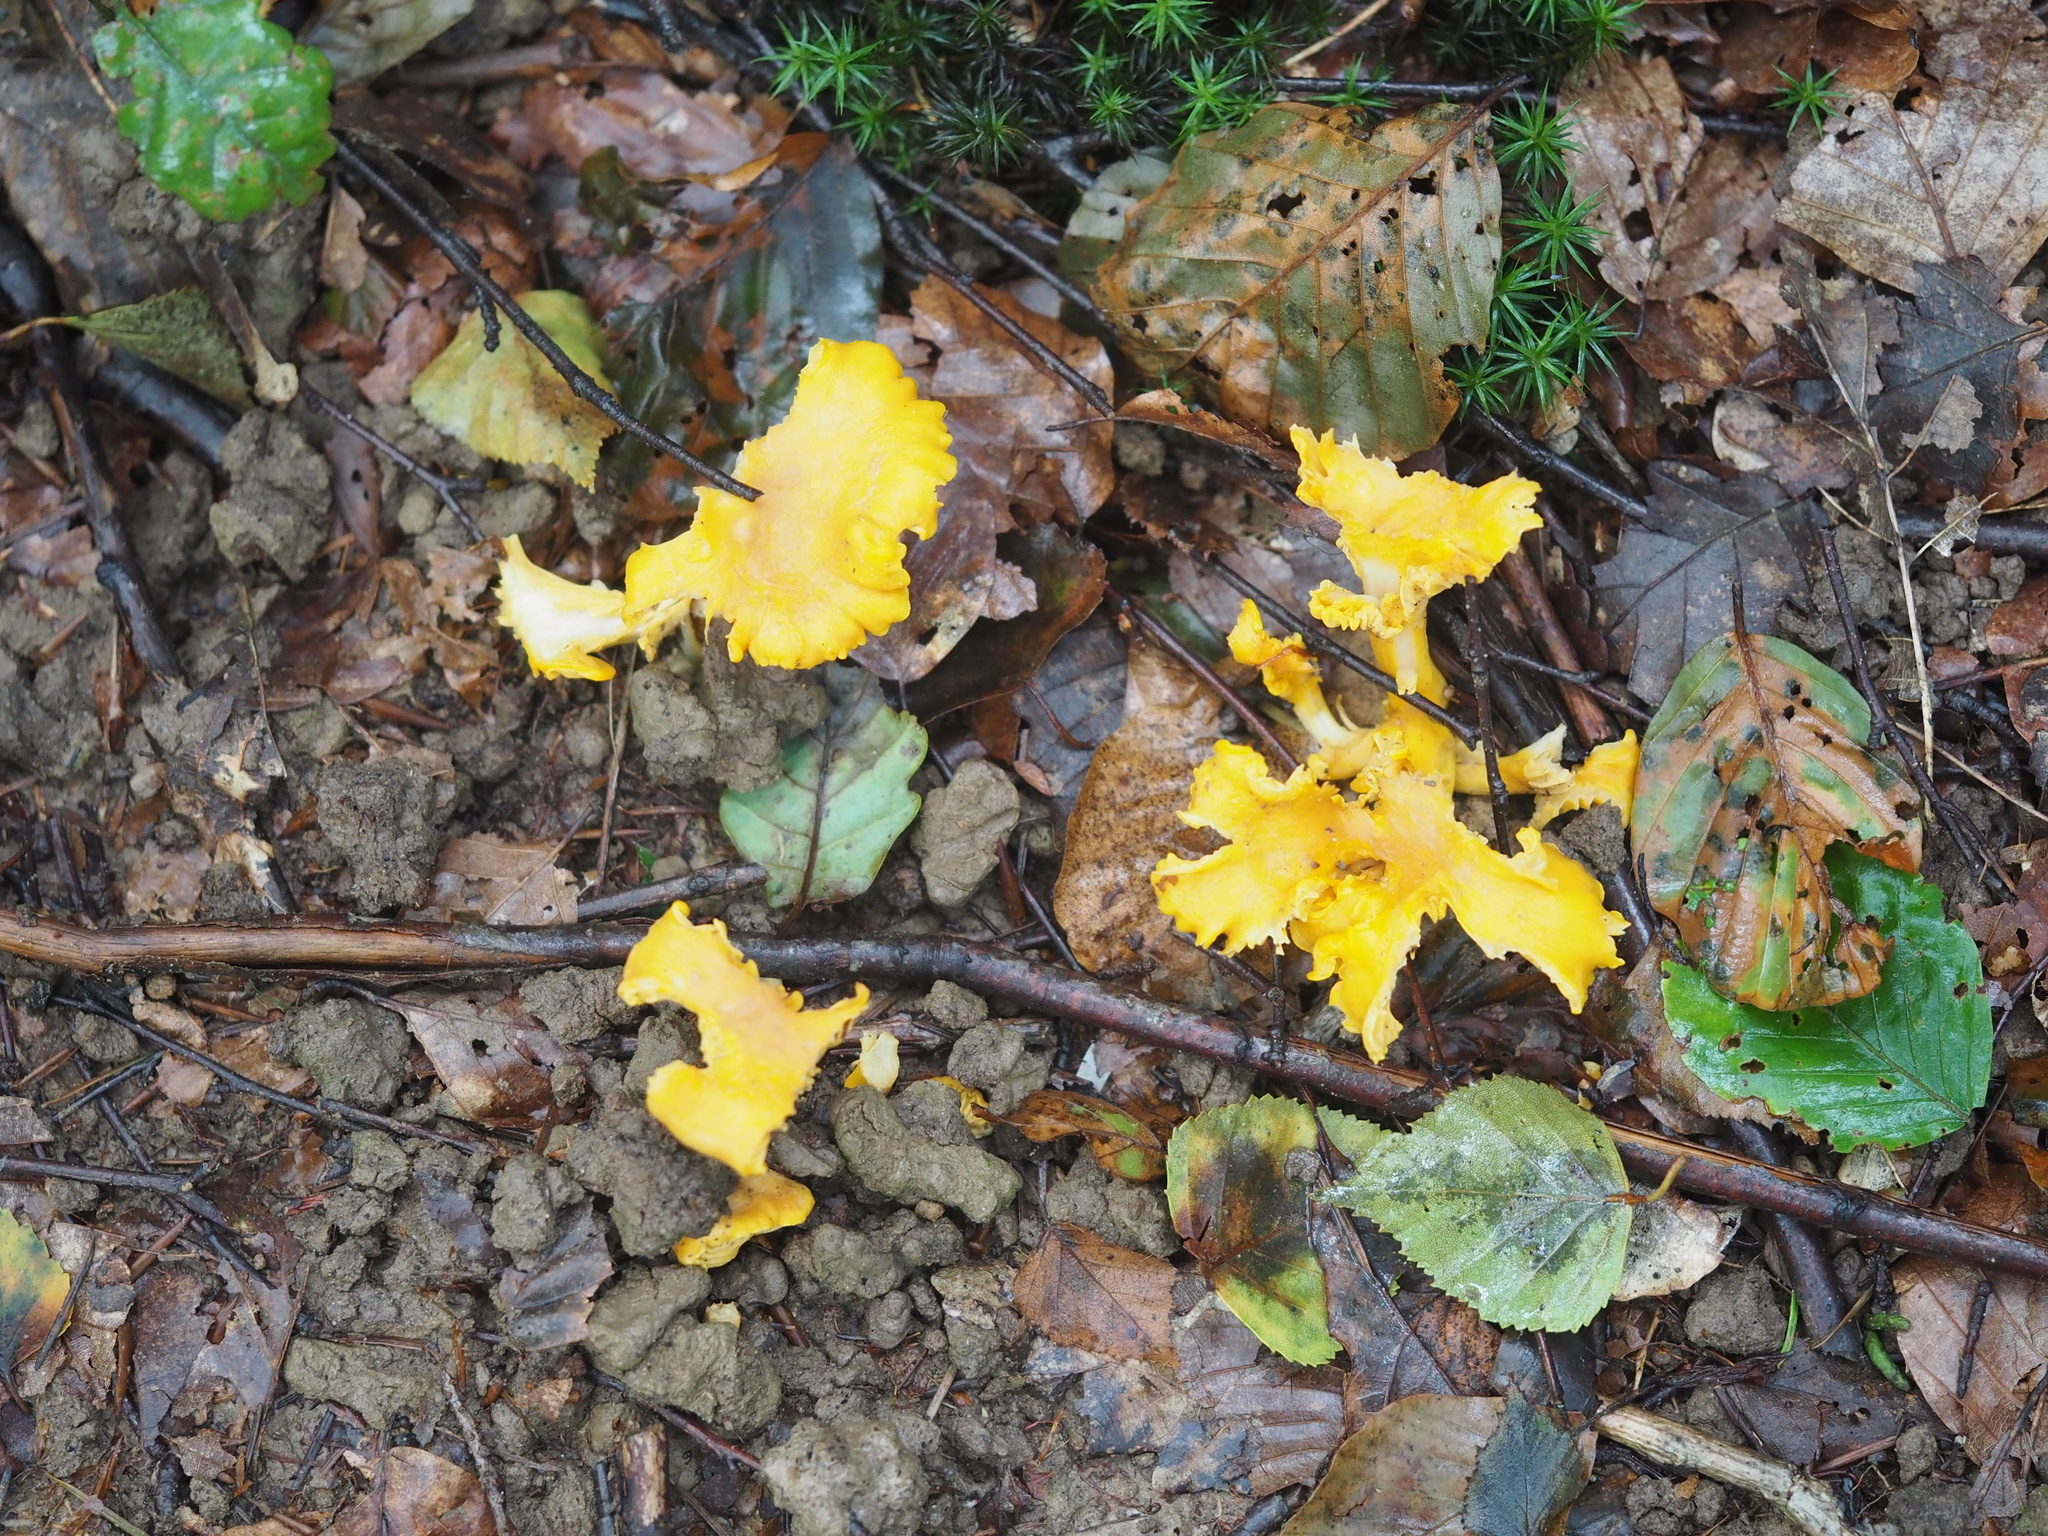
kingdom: Fungi
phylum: Basidiomycota
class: Agaricomycetes
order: Cantharellales
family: Hydnaceae
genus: Cantharellus
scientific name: Cantharellus cibarius
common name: Chanterelle
